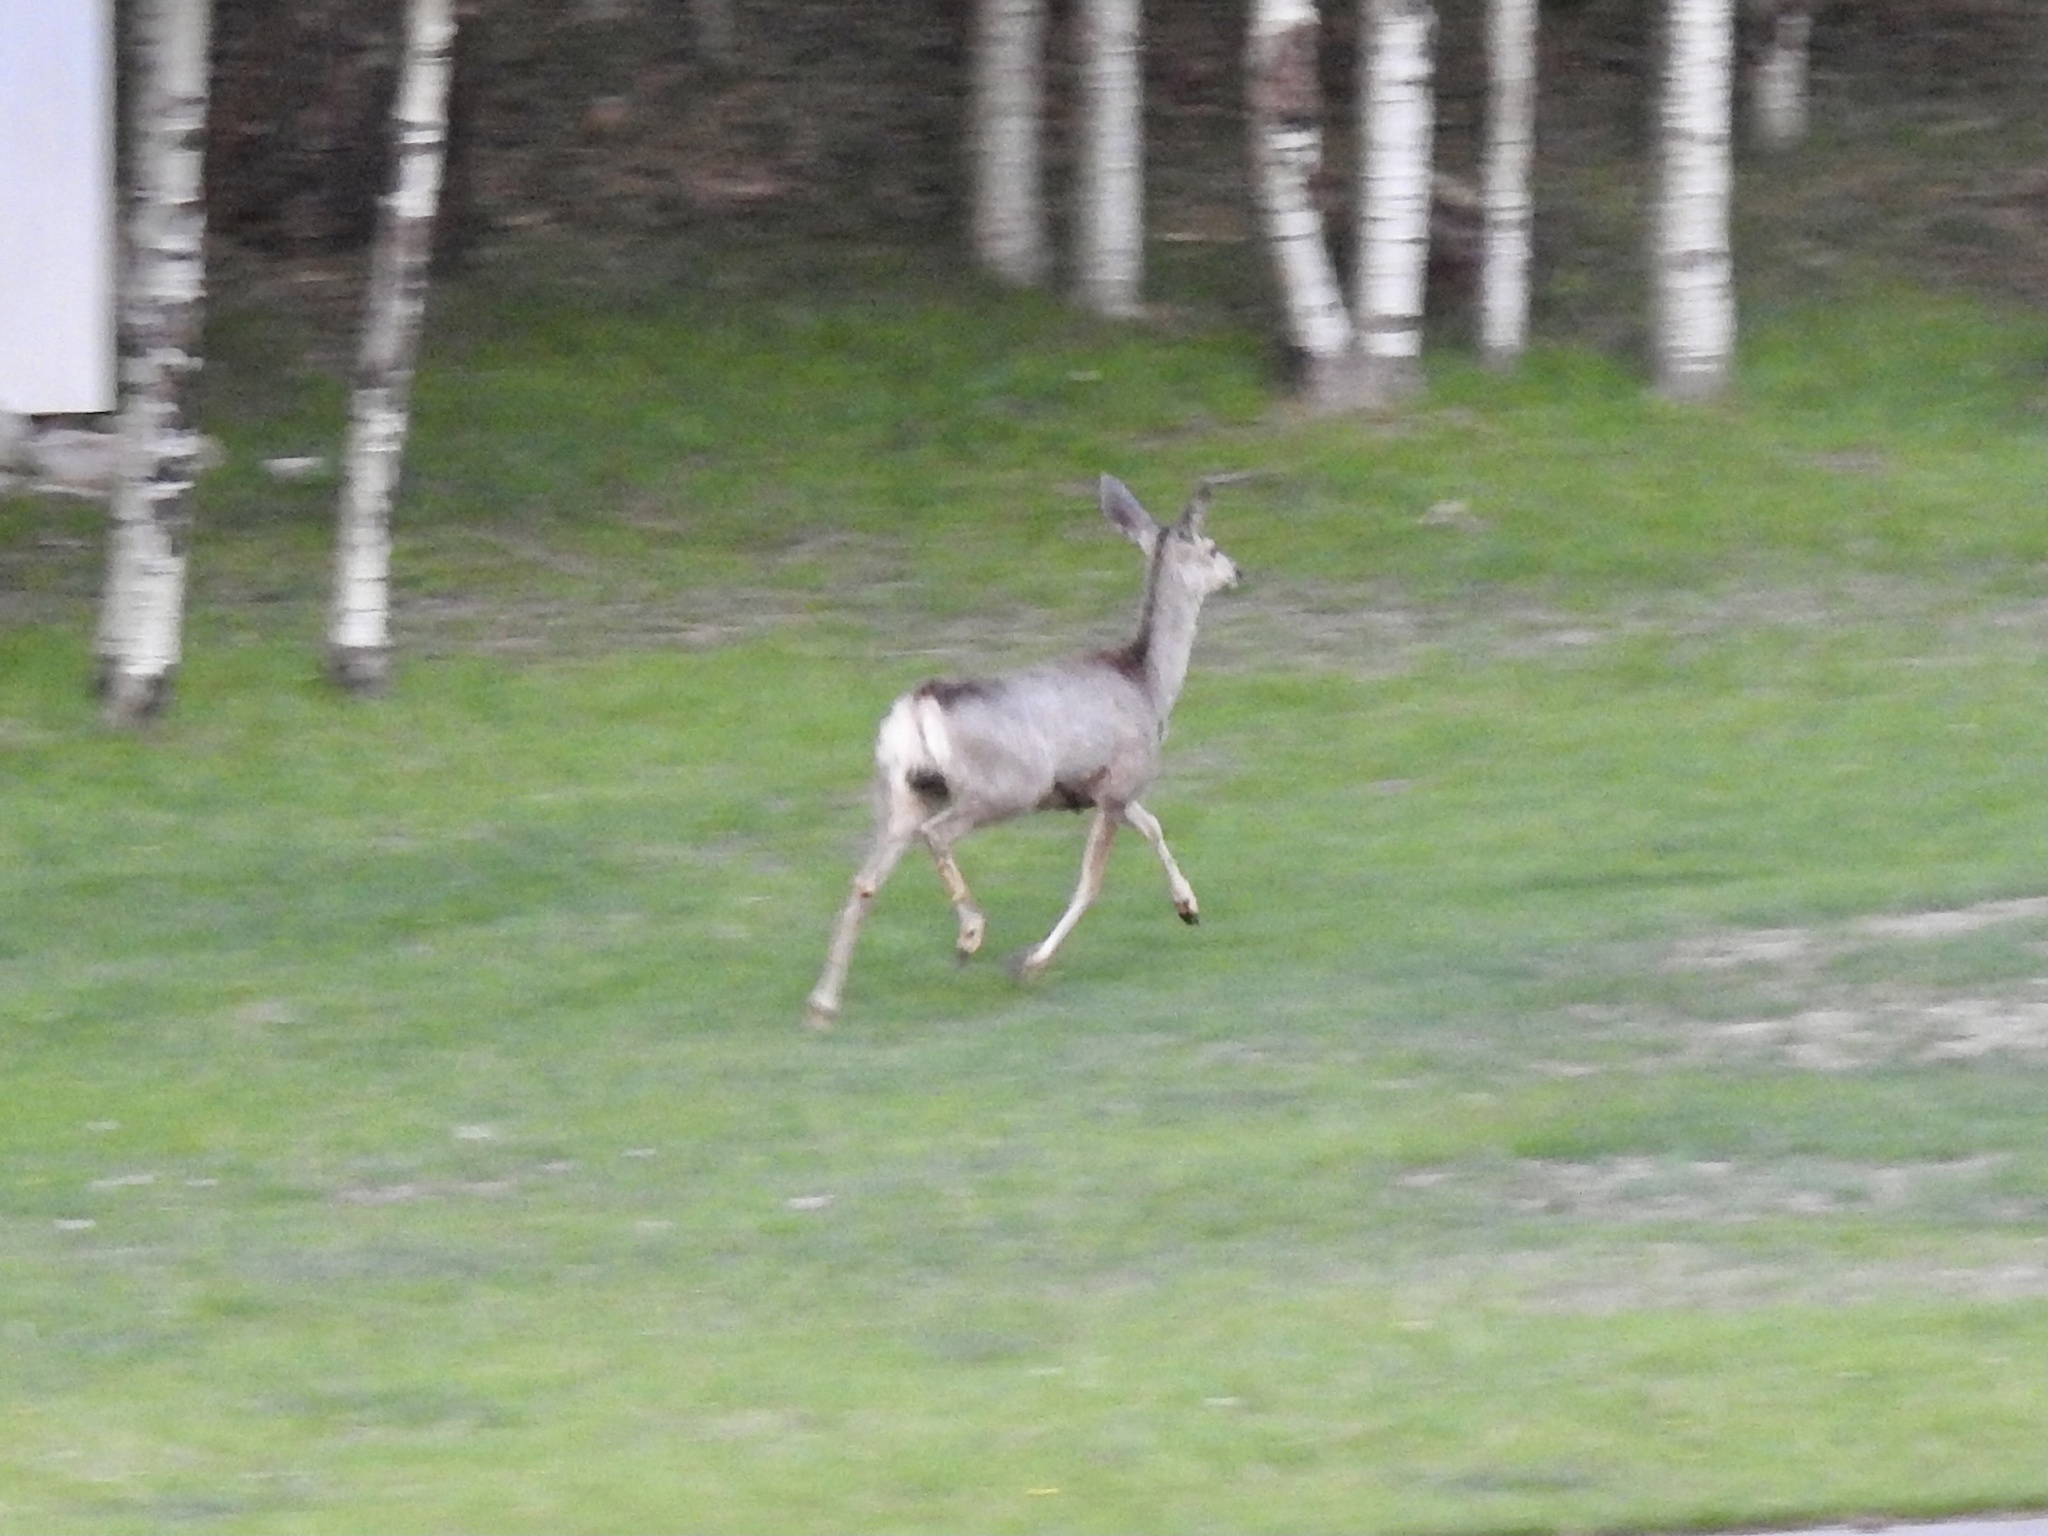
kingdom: Animalia
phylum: Chordata
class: Mammalia
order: Artiodactyla
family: Cervidae
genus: Odocoileus
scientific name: Odocoileus hemionus
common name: Mule deer
